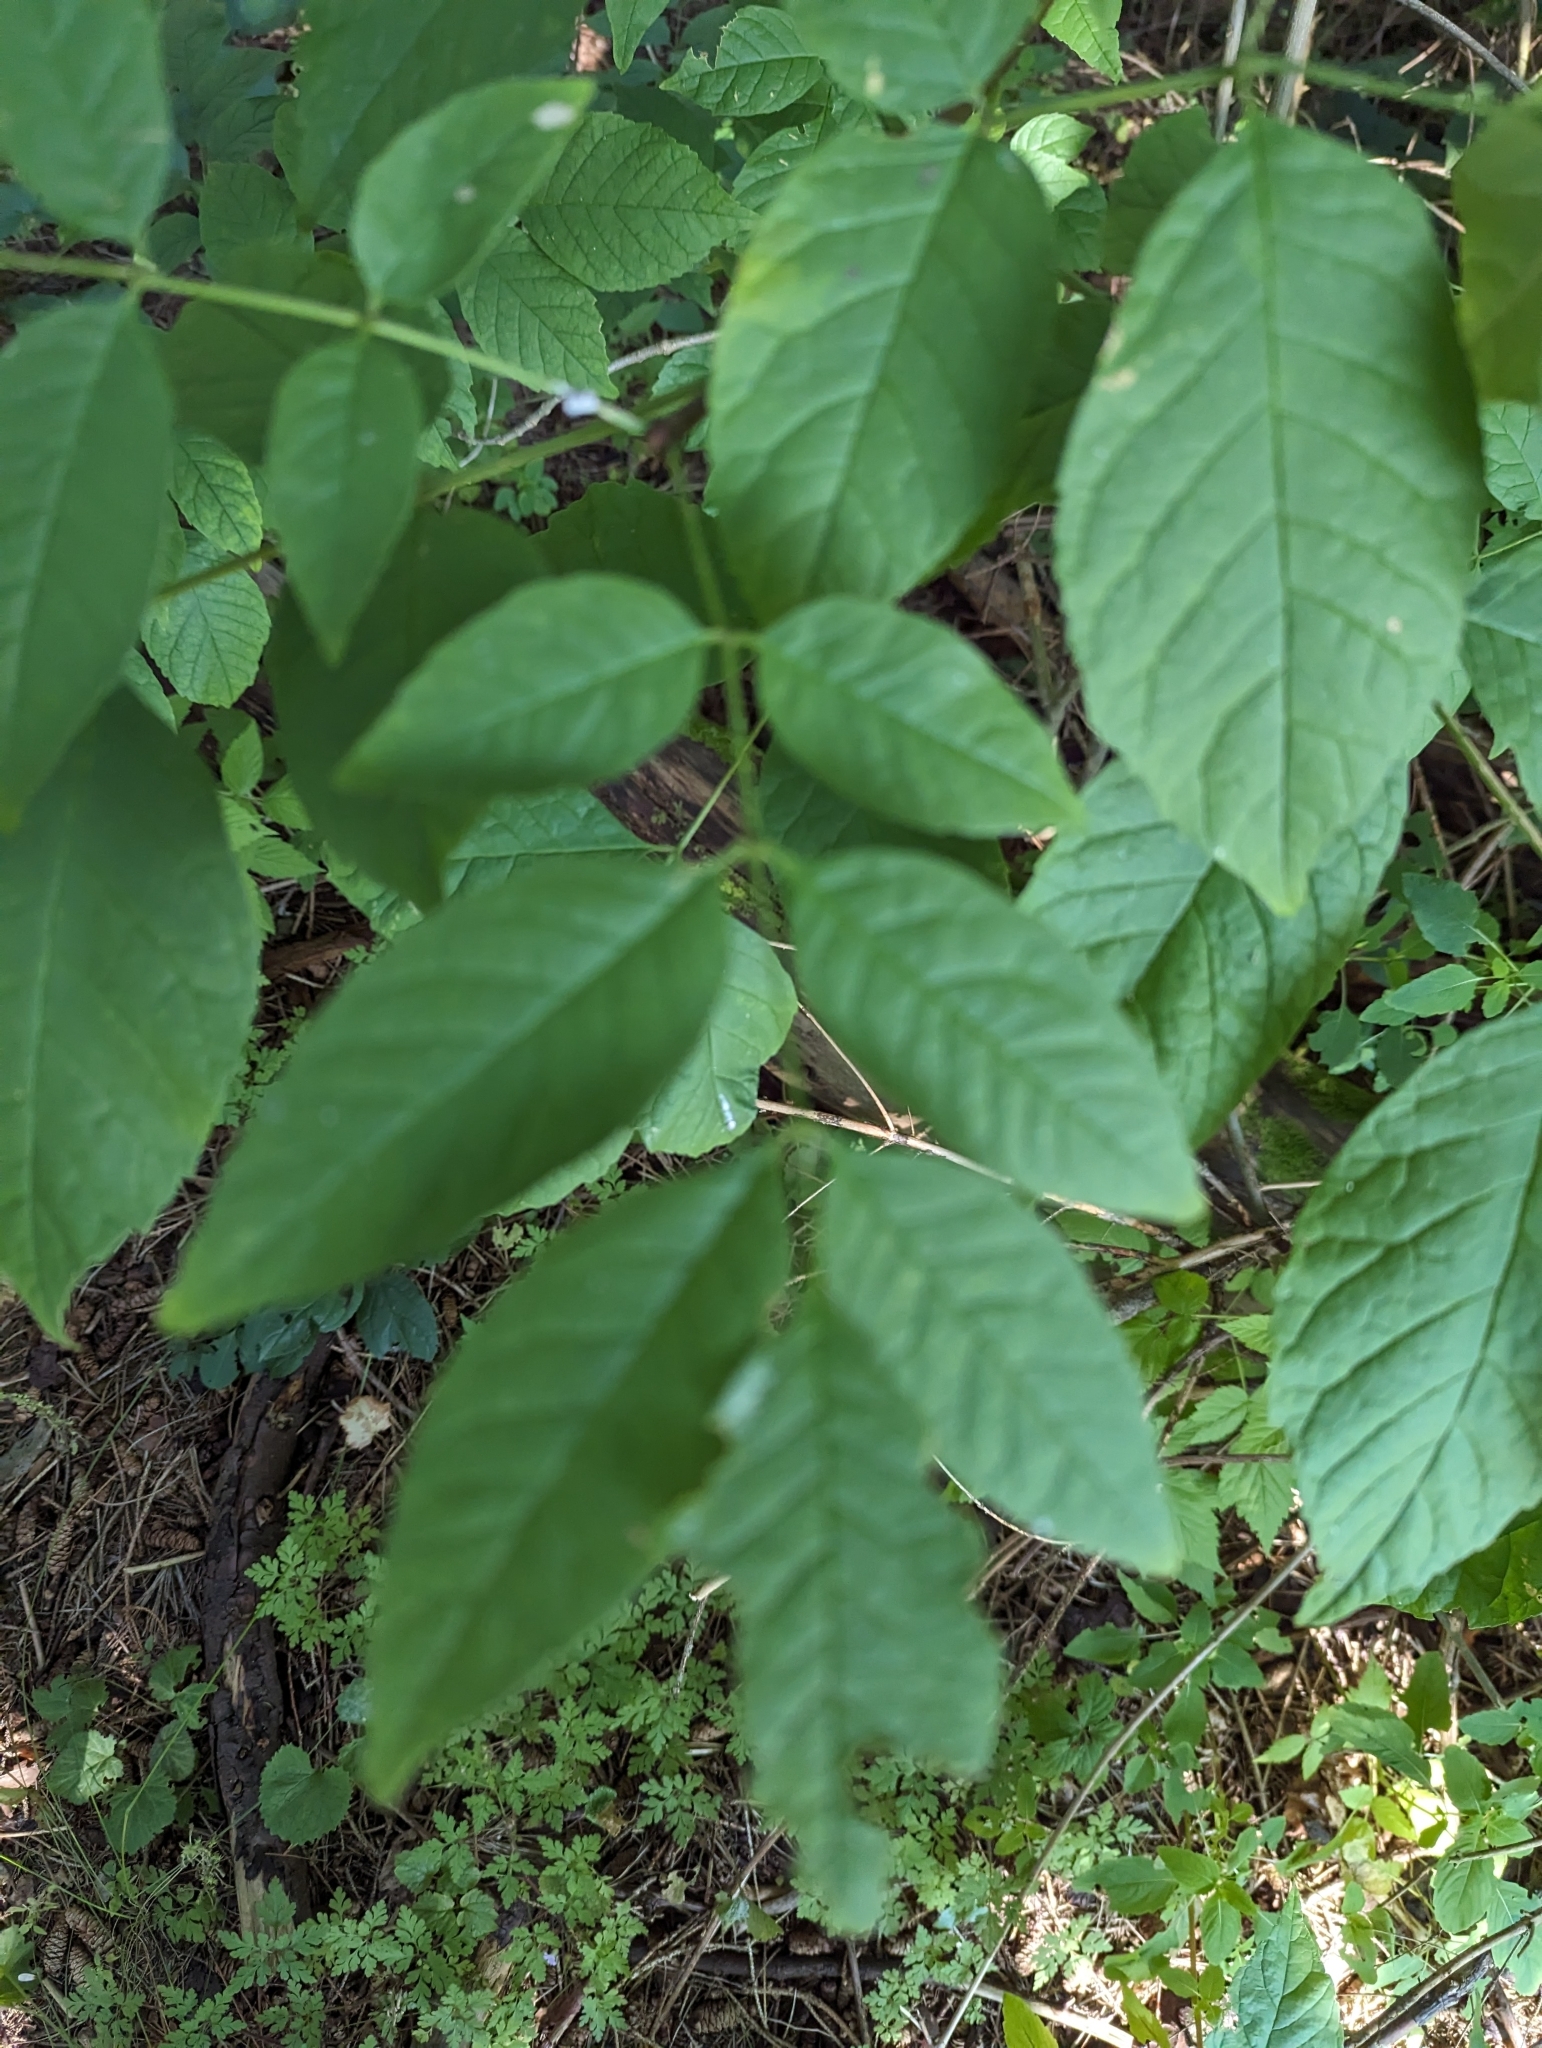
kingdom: Plantae
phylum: Tracheophyta
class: Magnoliopsida
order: Lamiales
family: Oleaceae
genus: Fraxinus
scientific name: Fraxinus americana
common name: White ash
